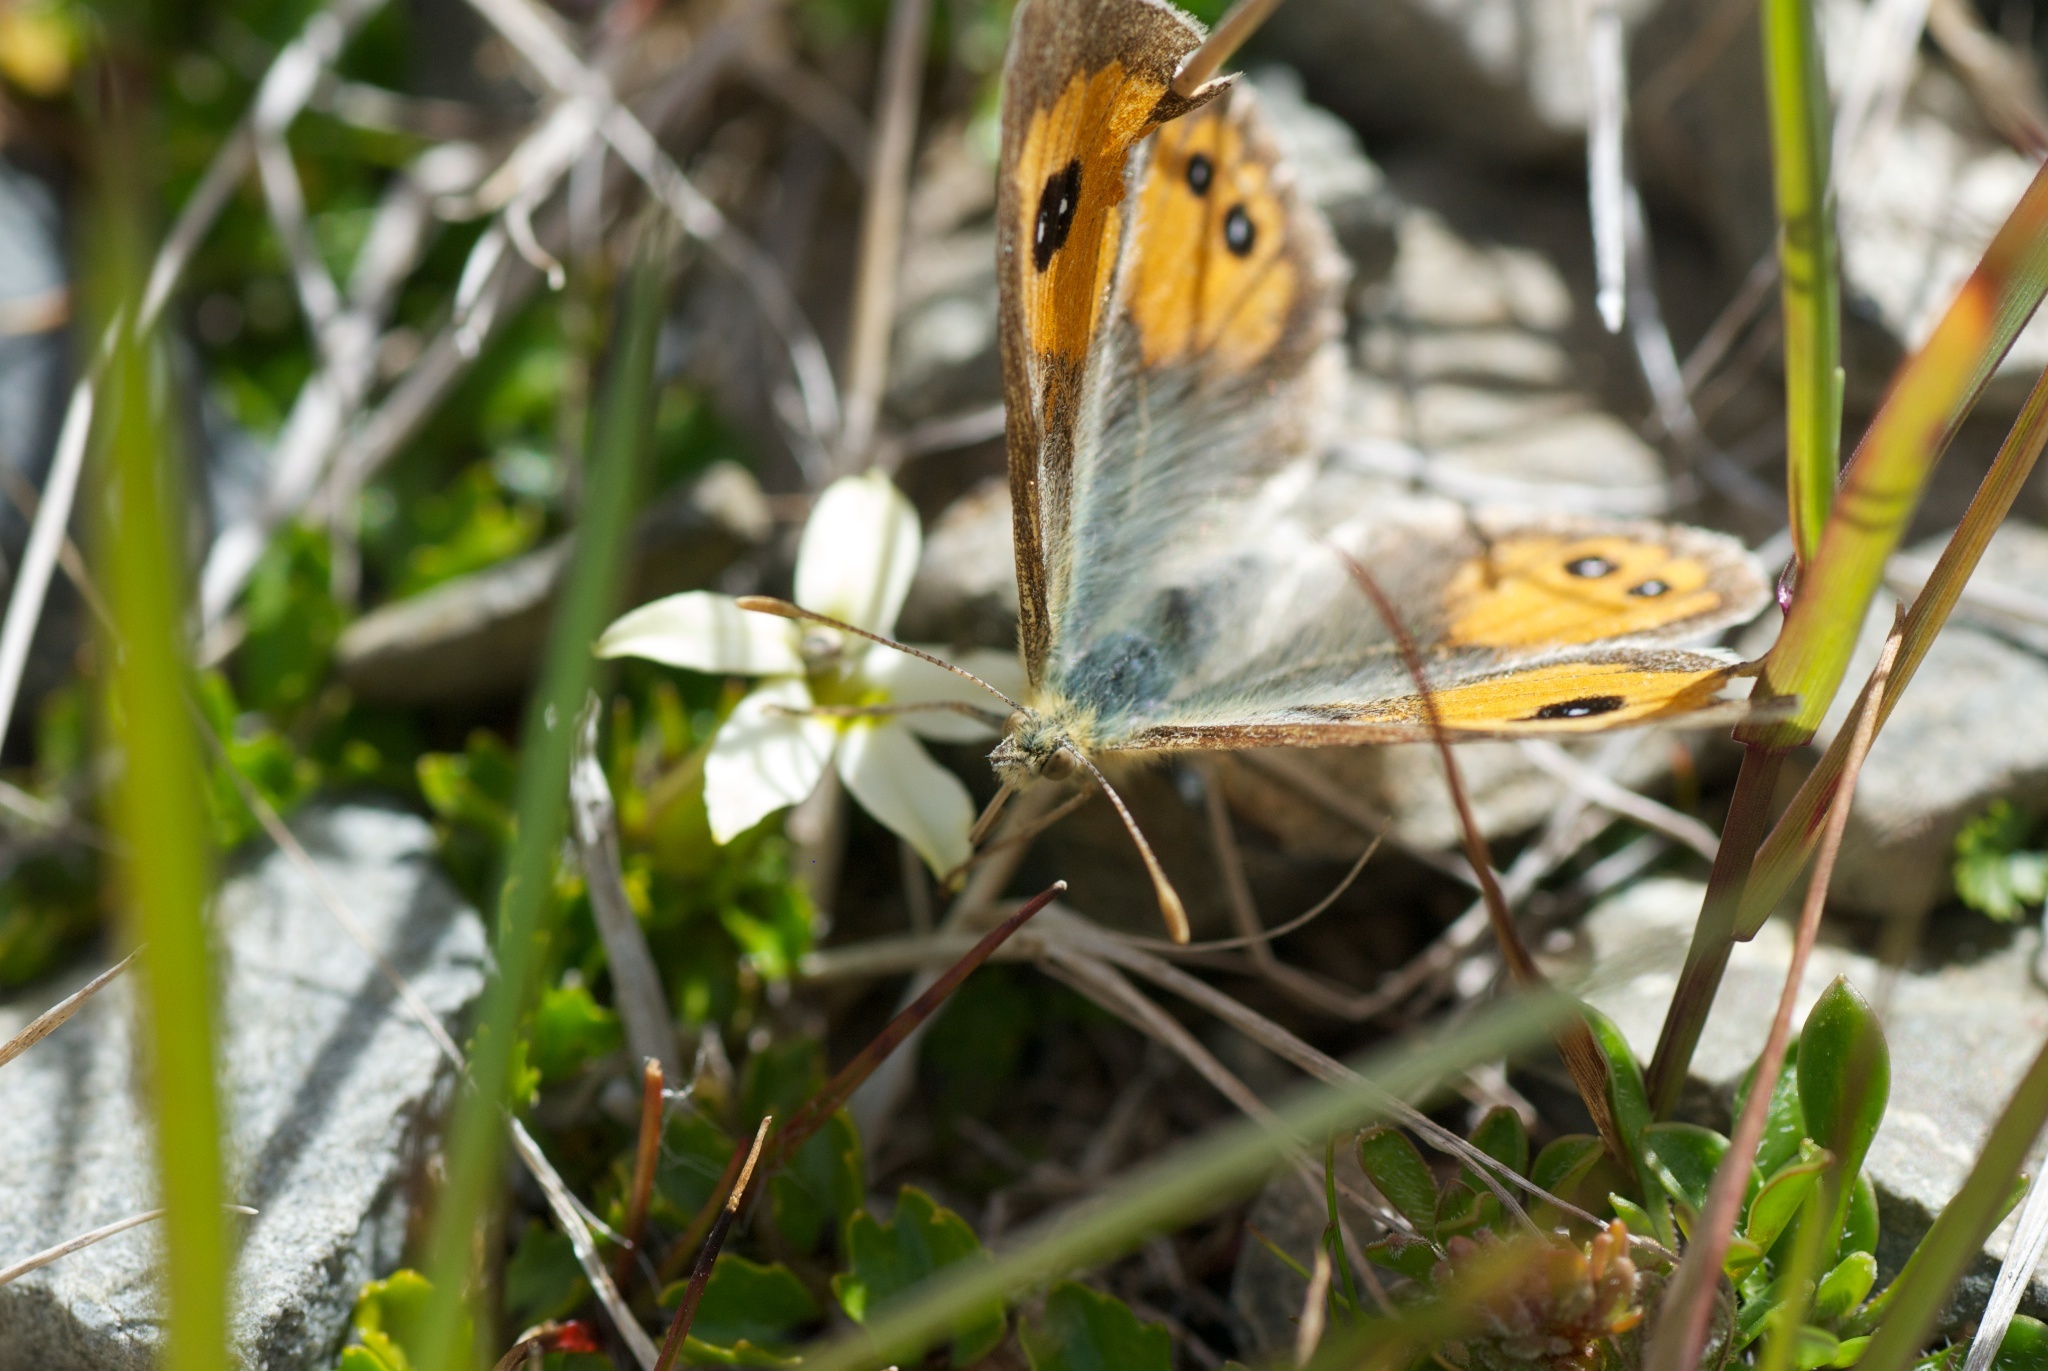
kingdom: Animalia
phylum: Arthropoda
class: Insecta
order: Lepidoptera
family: Nymphalidae
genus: Argyrophenga
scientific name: Argyrophenga janitae
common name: Janita's tussock
